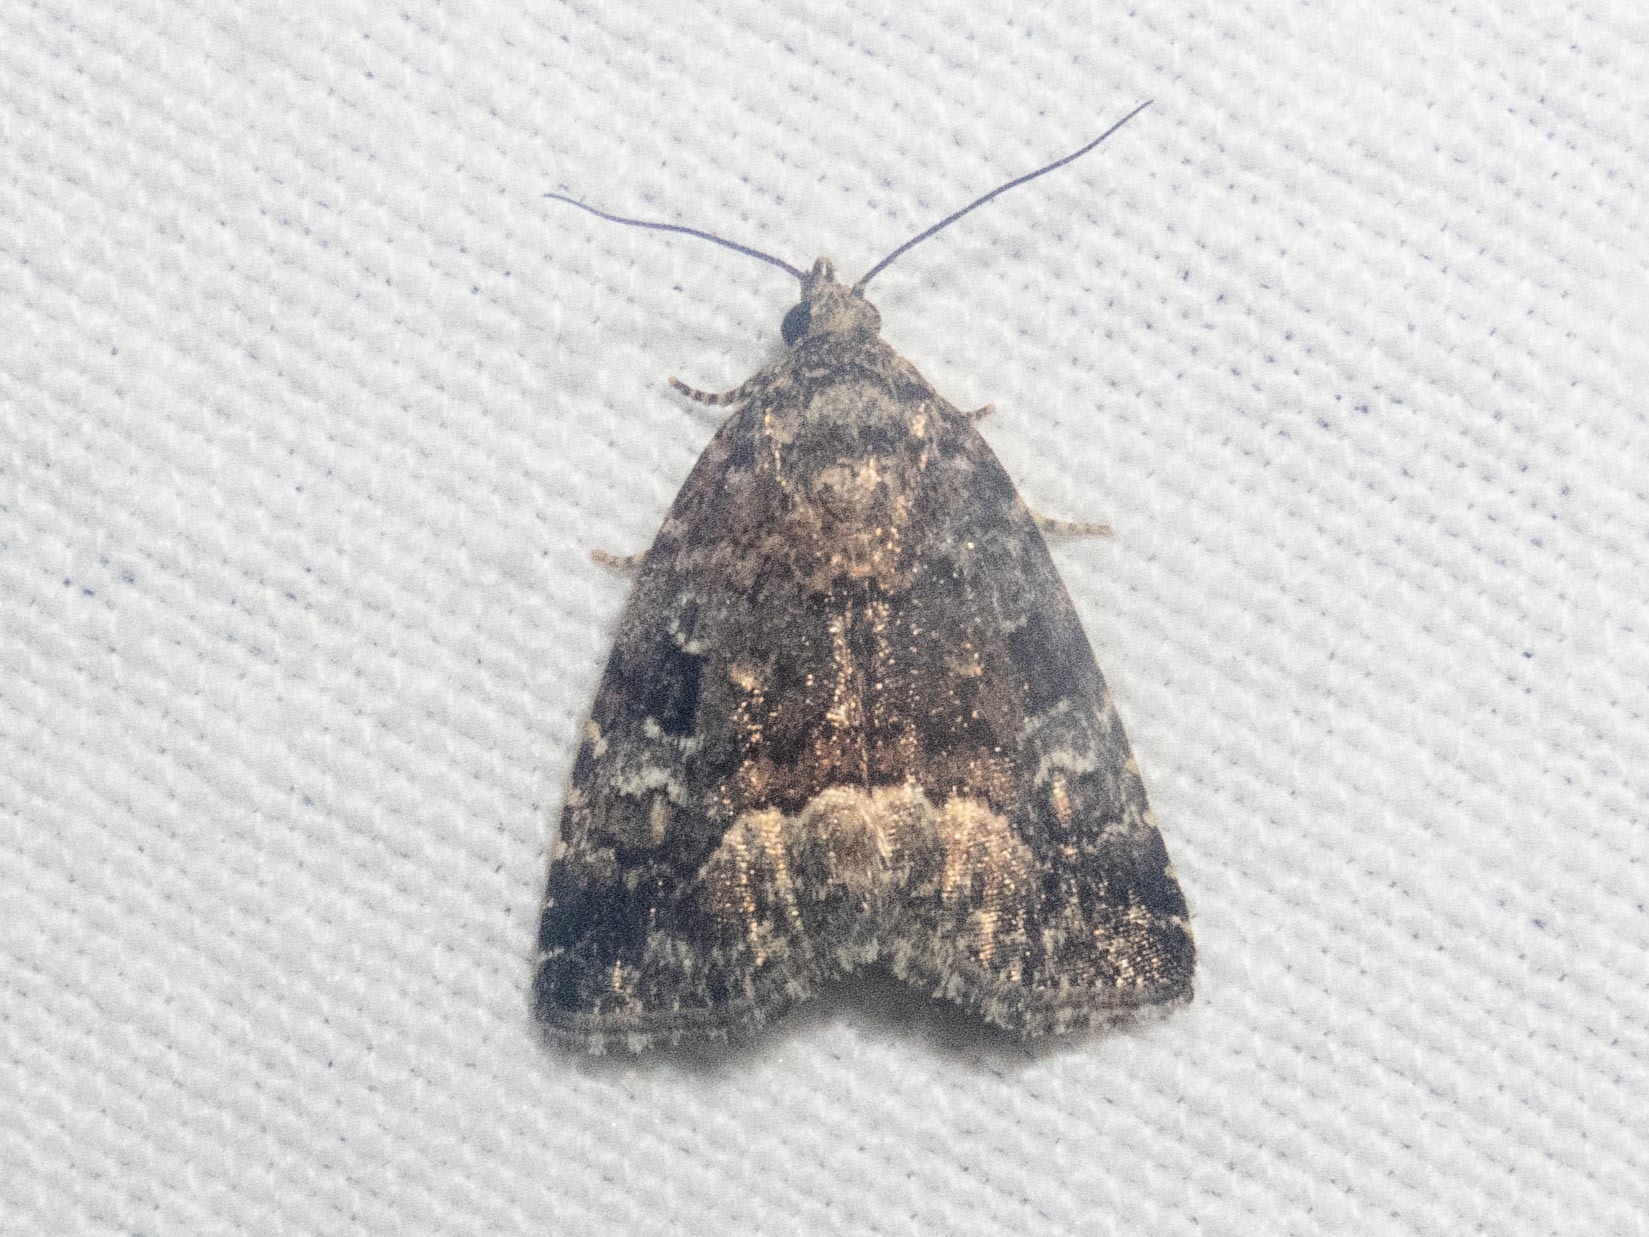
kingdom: Animalia
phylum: Arthropoda
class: Insecta
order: Lepidoptera
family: Noctuidae
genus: Deltote
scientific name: Deltote pygarga
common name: Marbled white spot
